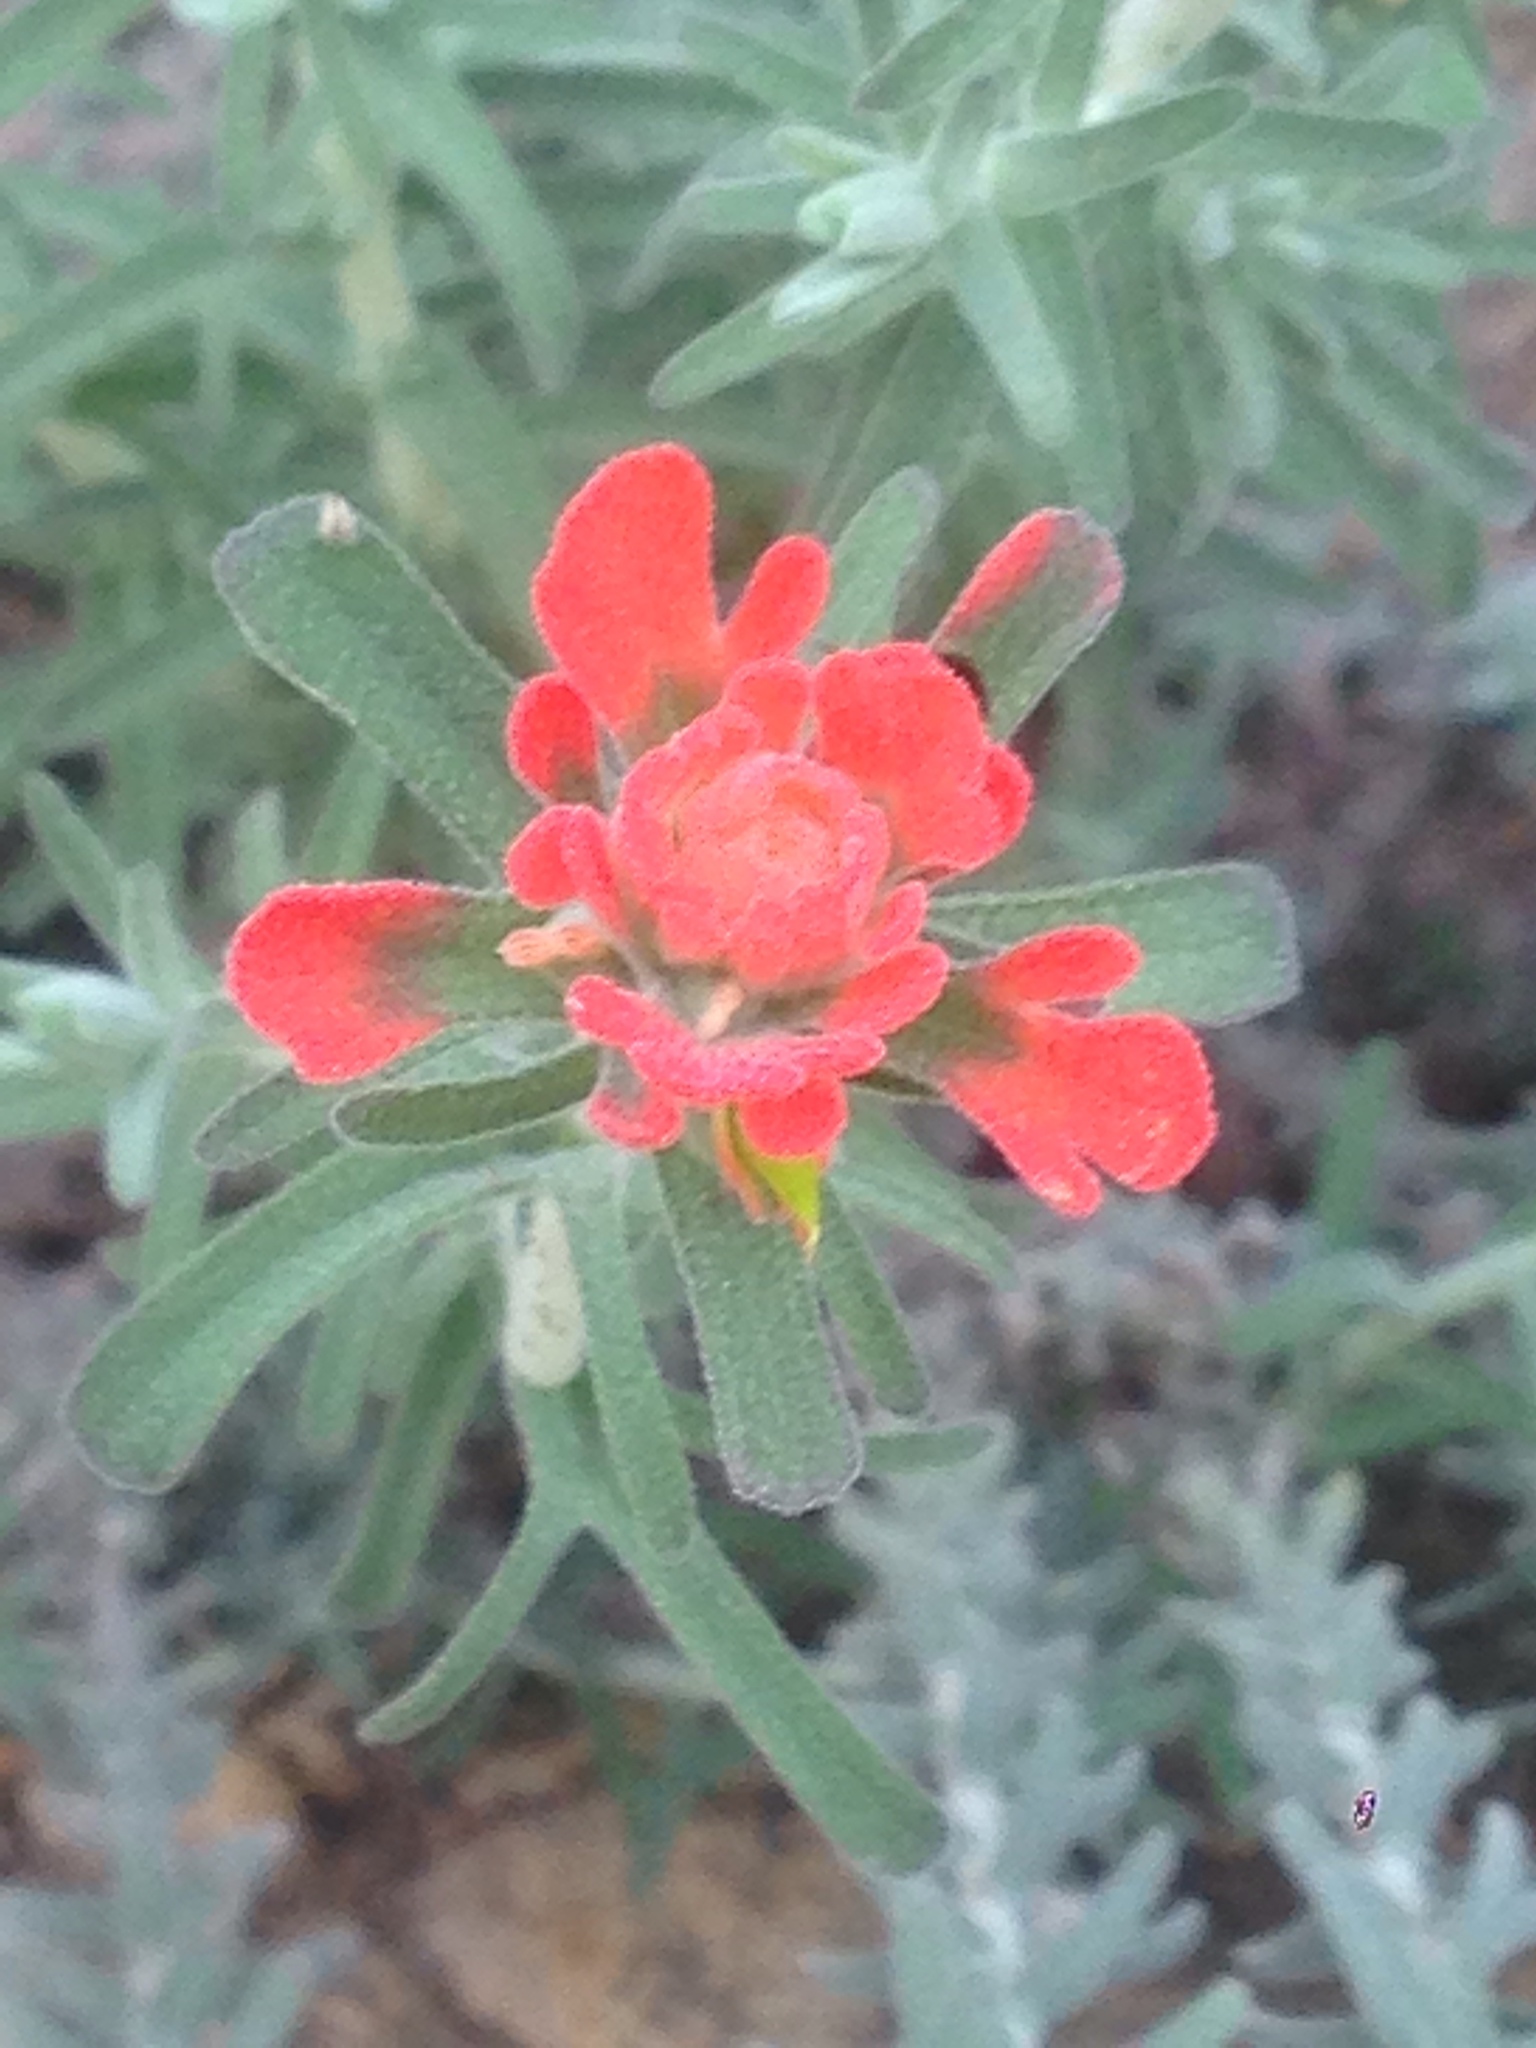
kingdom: Plantae
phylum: Tracheophyta
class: Magnoliopsida
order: Lamiales
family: Orobanchaceae
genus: Castilleja
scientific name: Castilleja foliolosa
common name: Woolly indian paintbrush
